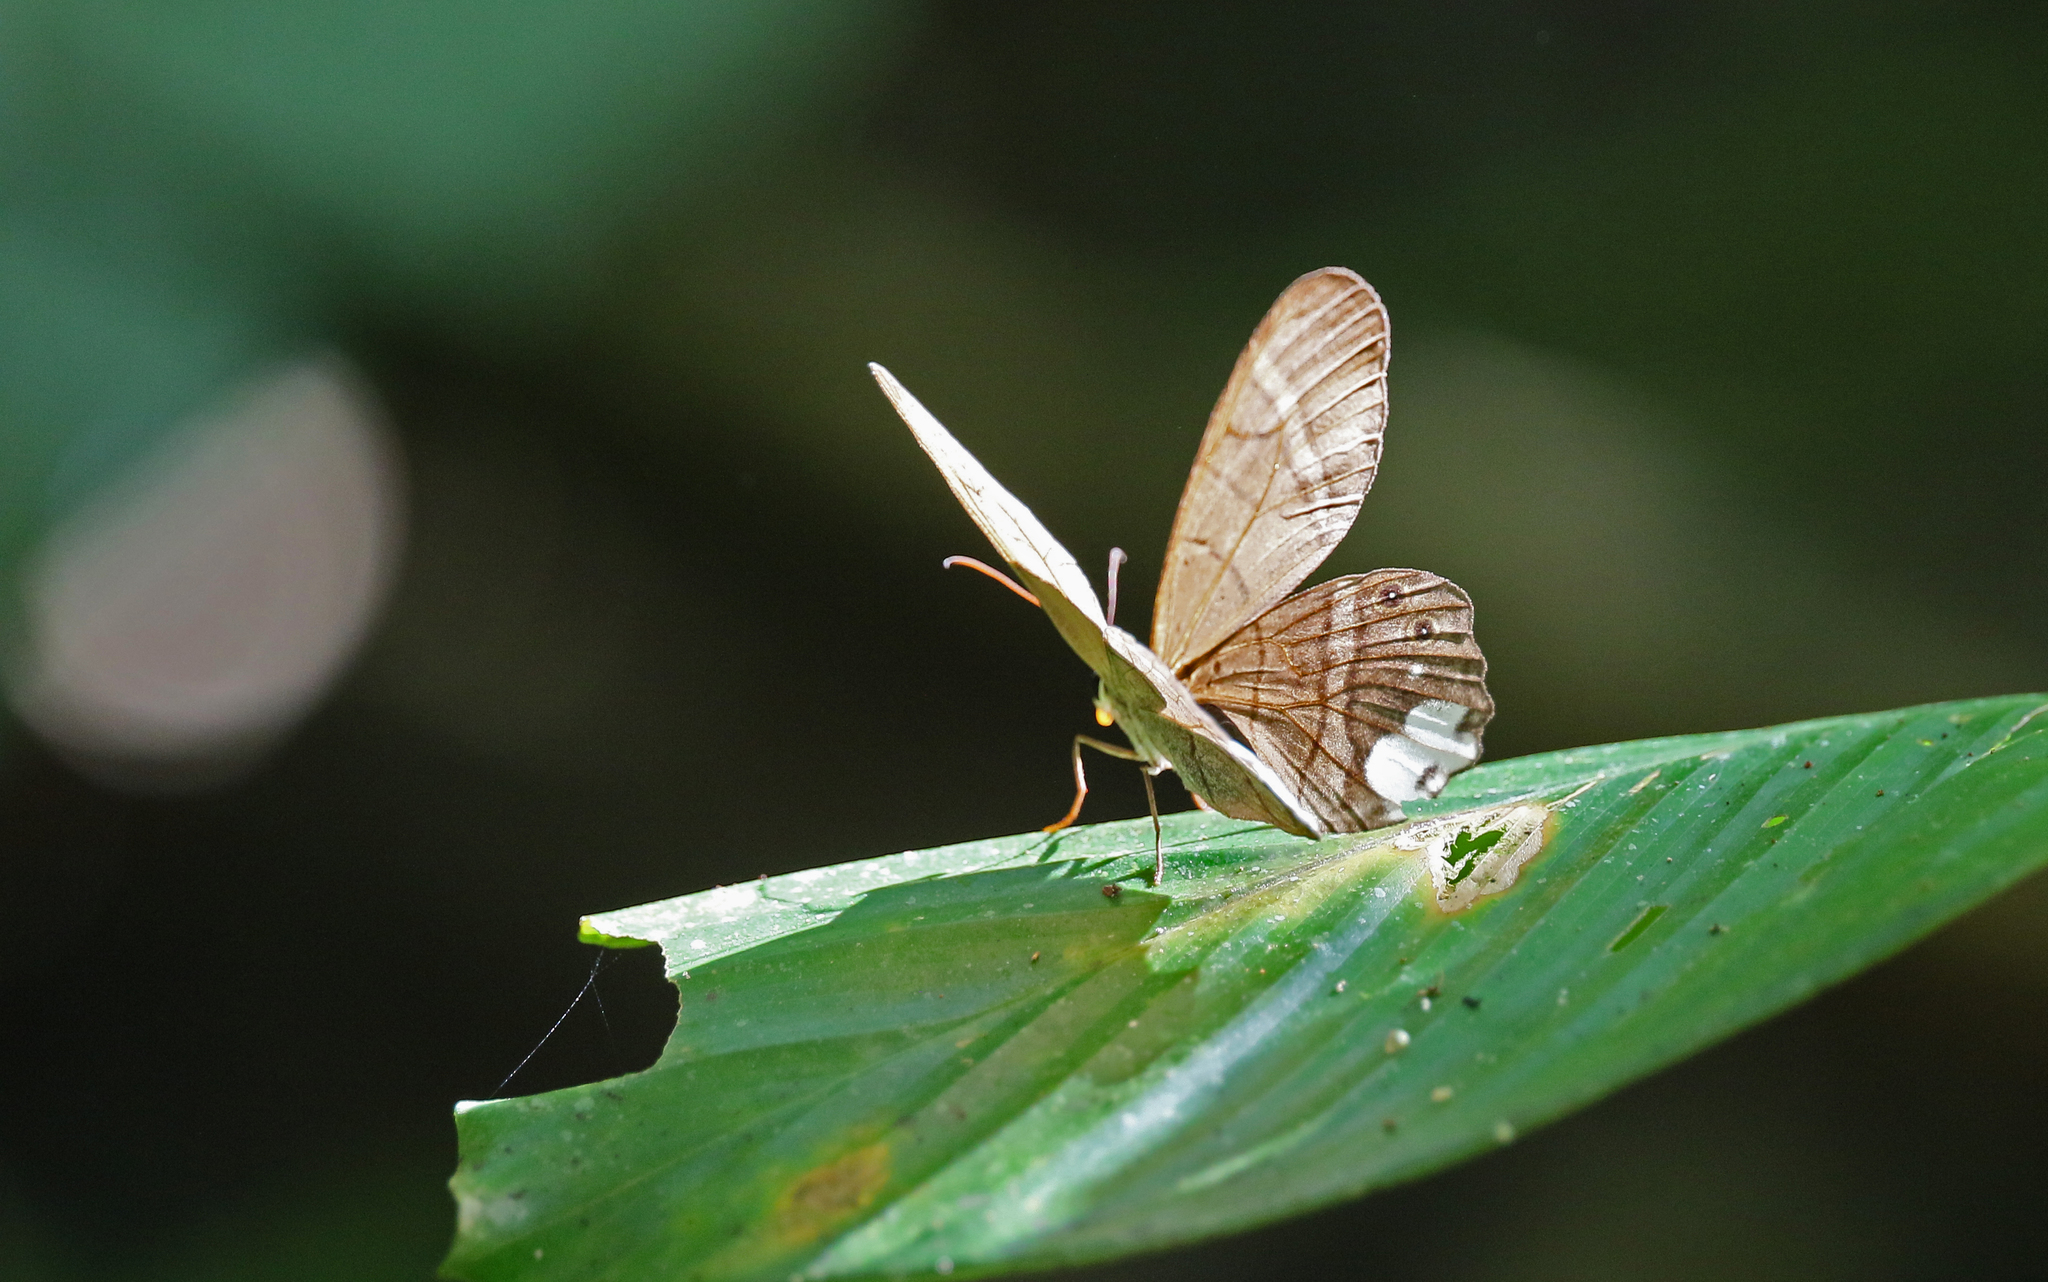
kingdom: Animalia
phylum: Arthropoda
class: Insecta
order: Lepidoptera
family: Nymphalidae
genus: Pierella
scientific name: Pierella astyoche
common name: Astyoche satyr
